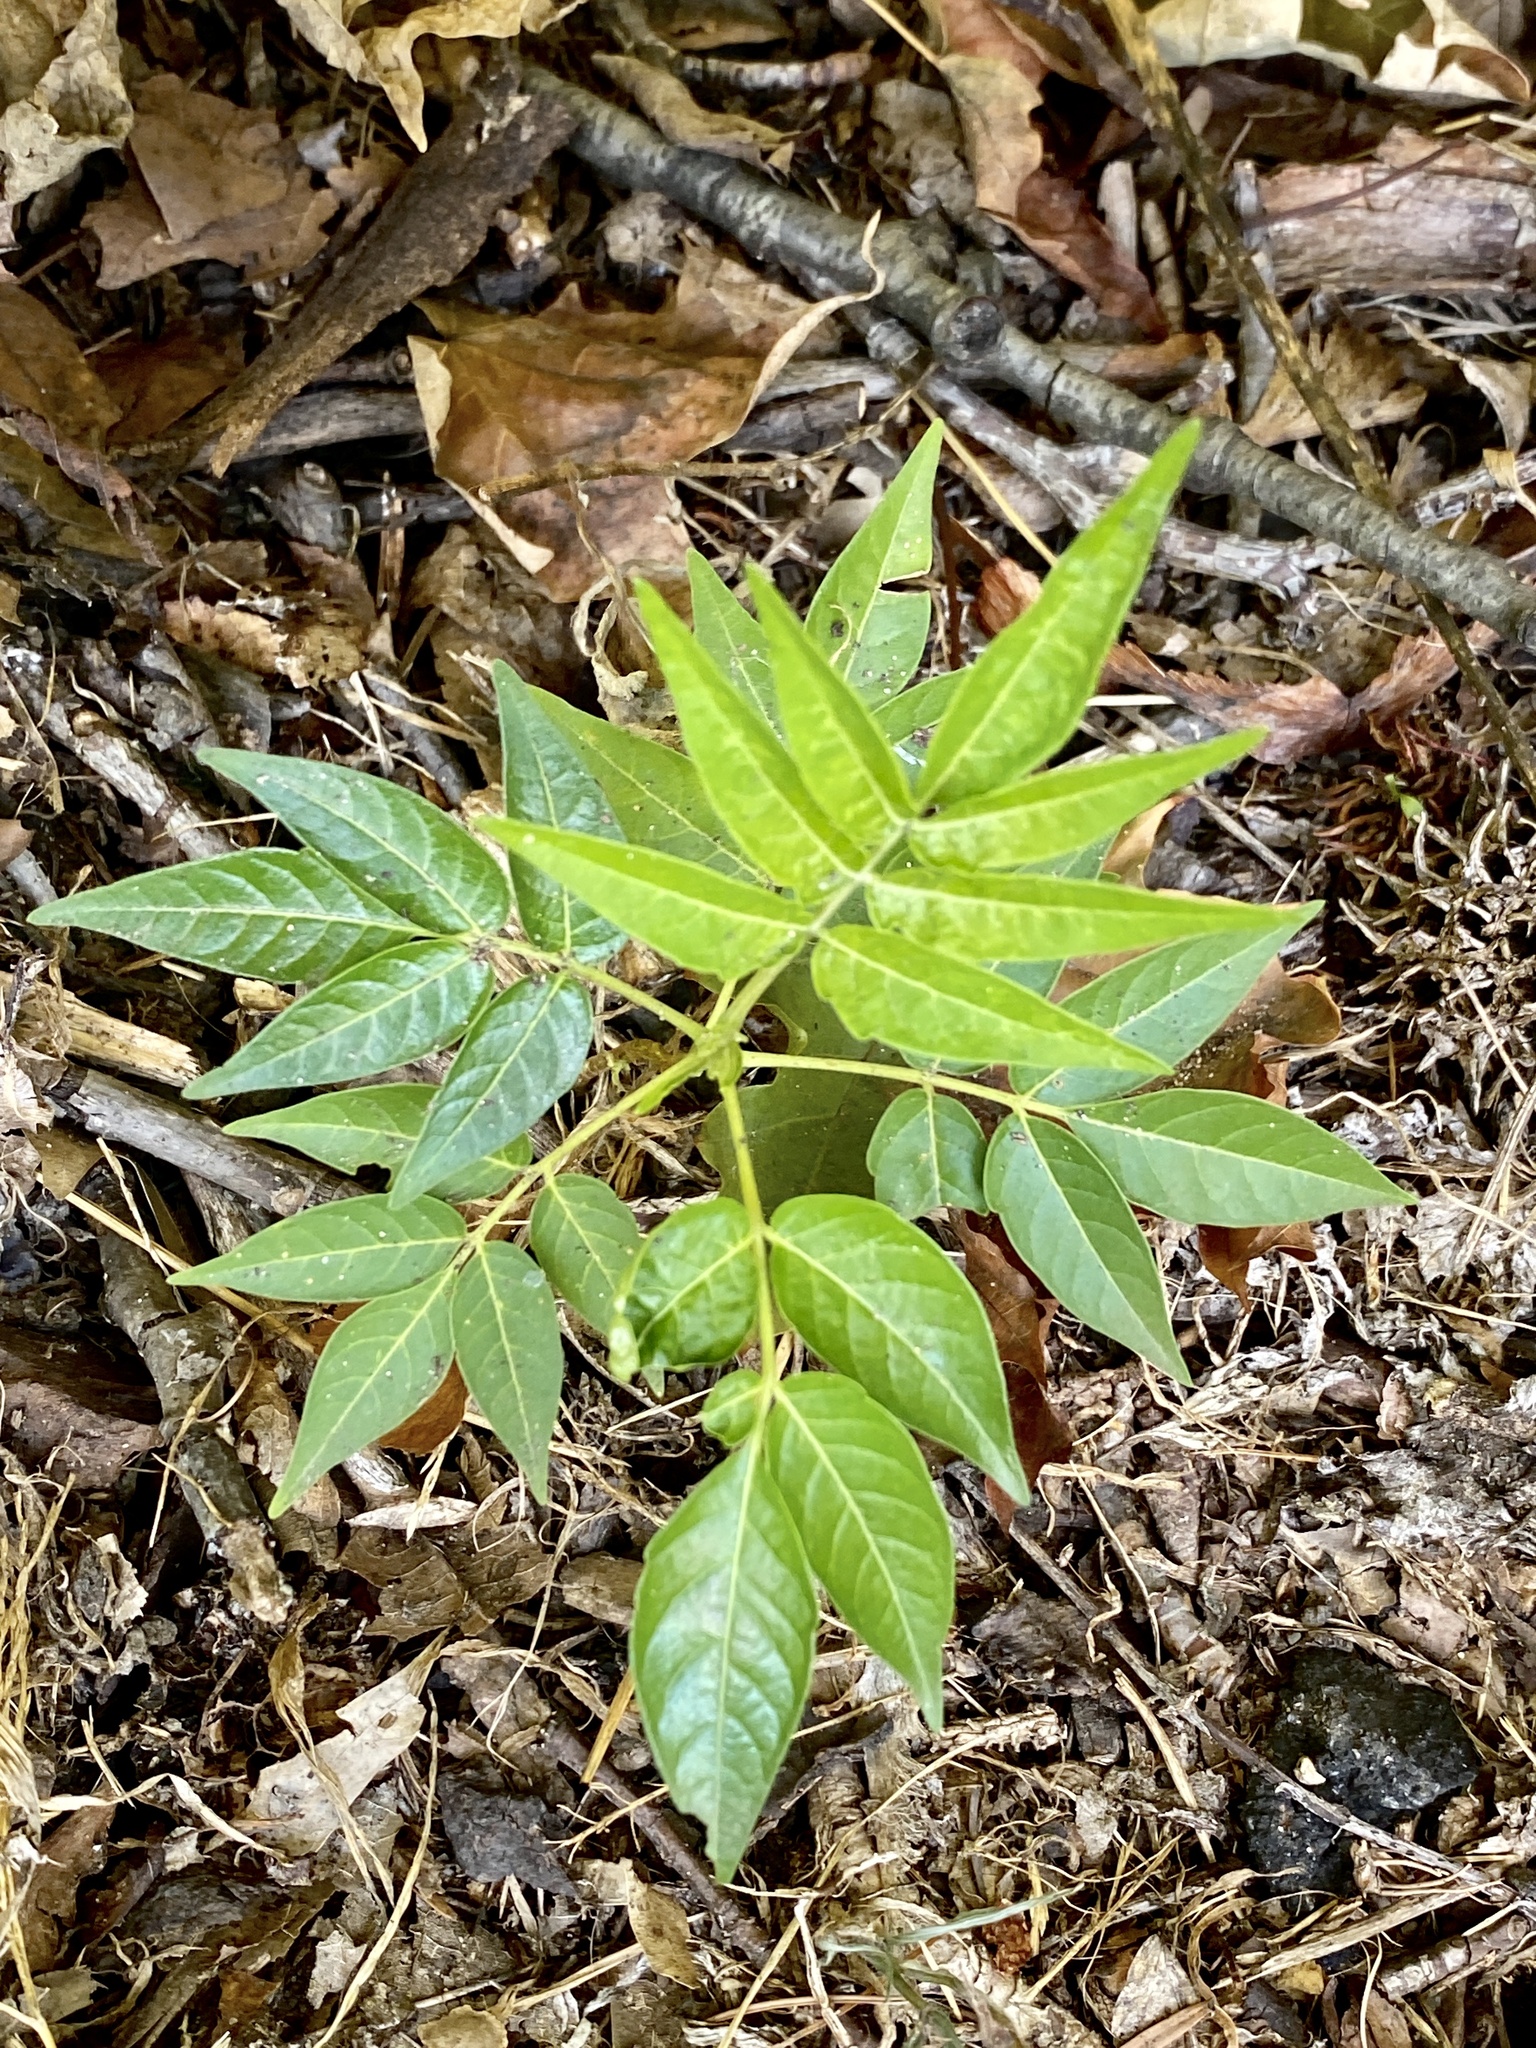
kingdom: Plantae
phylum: Tracheophyta
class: Magnoliopsida
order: Sapindales
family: Simaroubaceae
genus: Ailanthus
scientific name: Ailanthus altissima
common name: Tree-of-heaven
